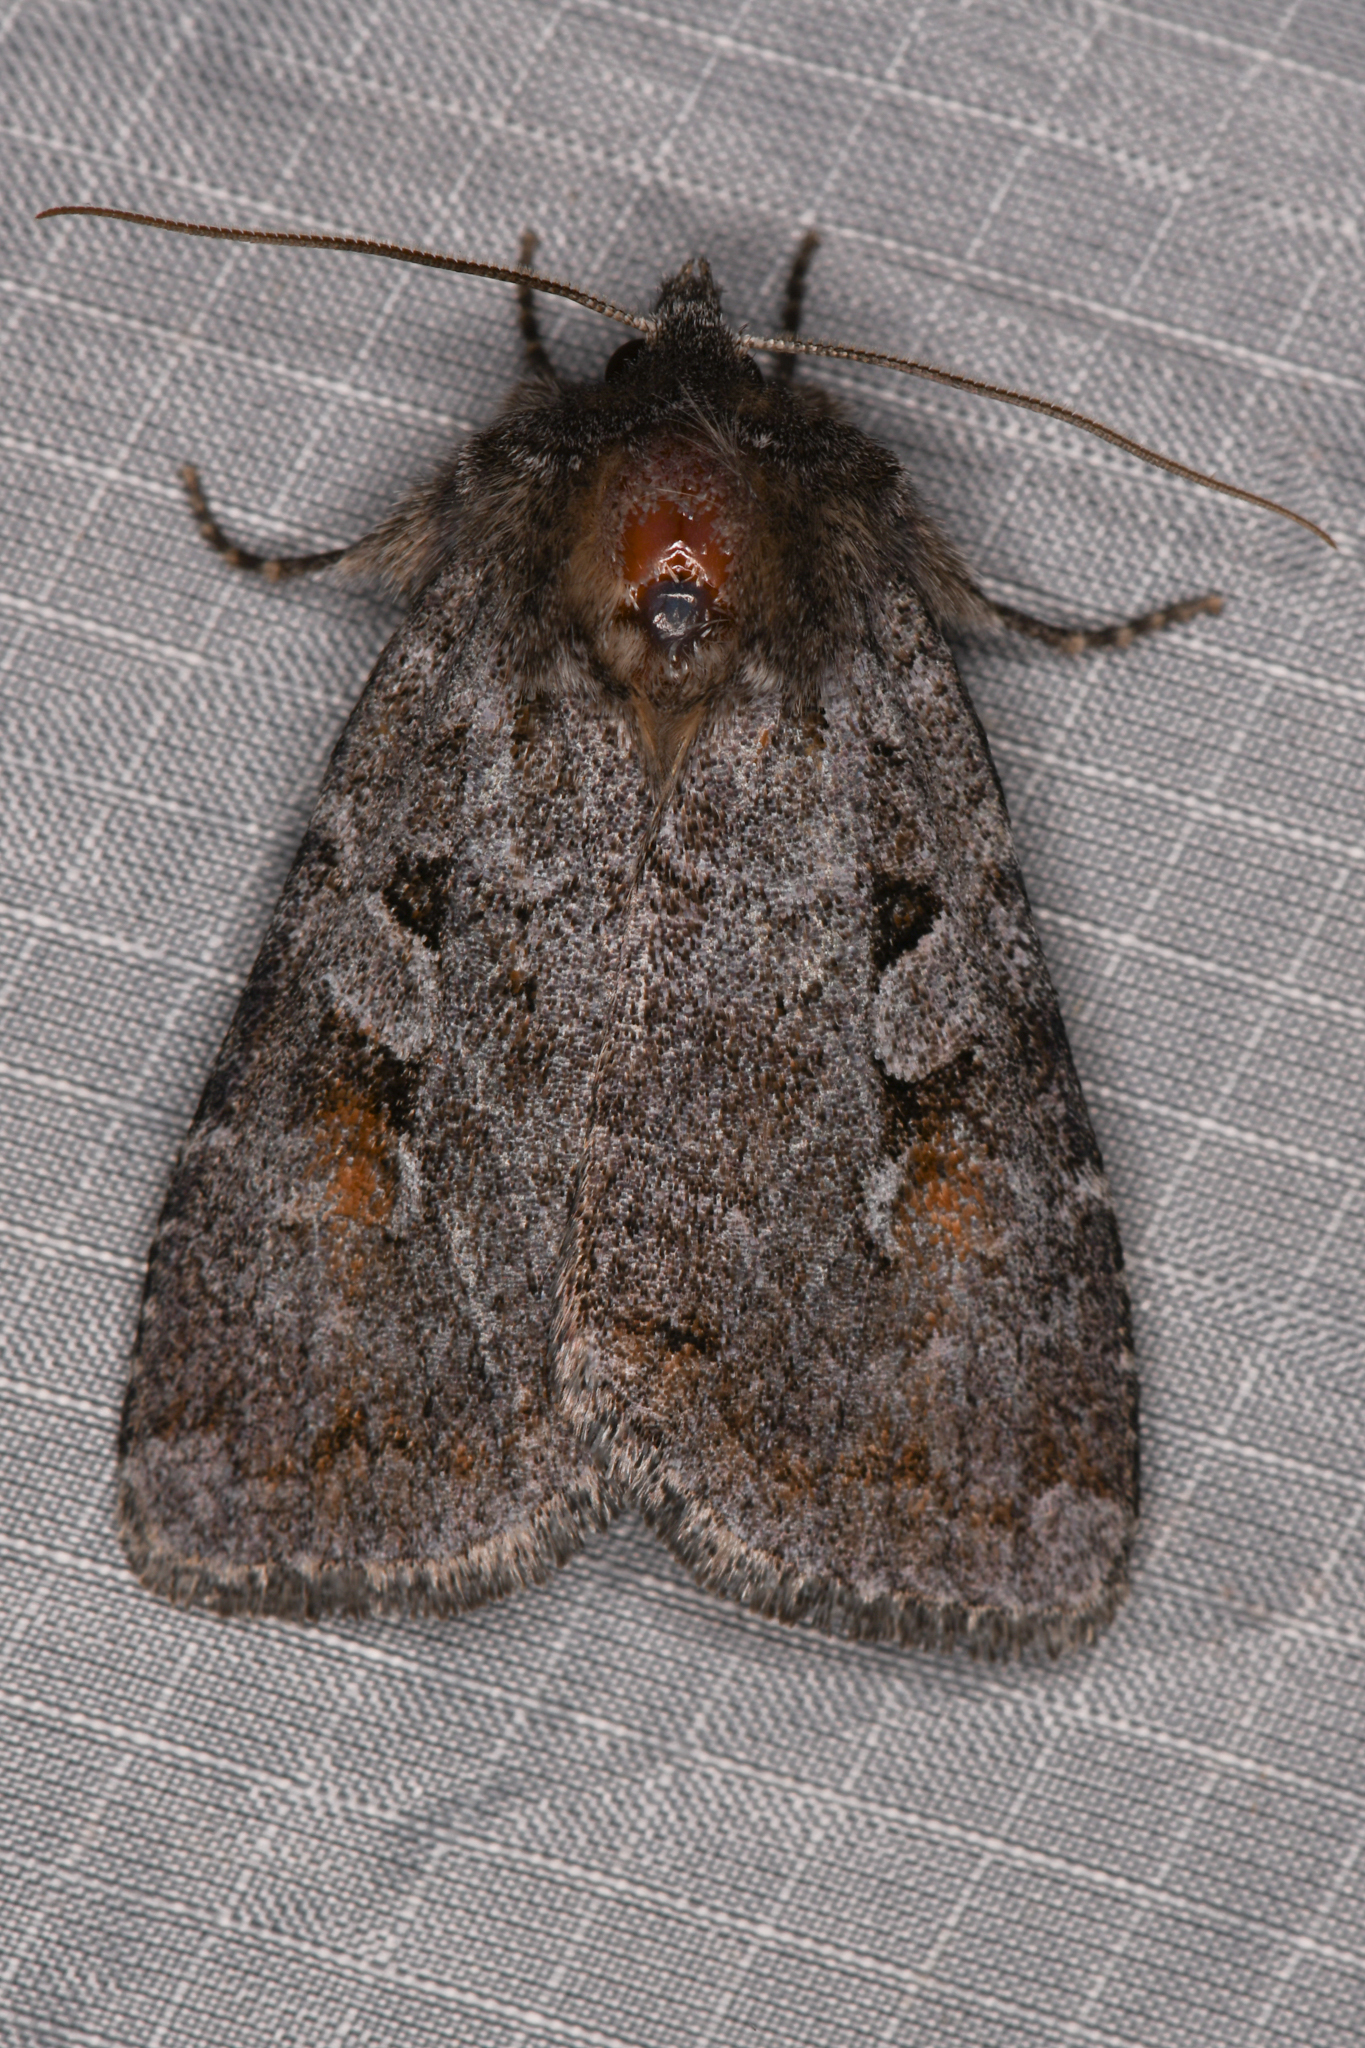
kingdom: Animalia
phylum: Arthropoda
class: Insecta
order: Lepidoptera
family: Noctuidae
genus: Xestia
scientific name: Xestia imperita
